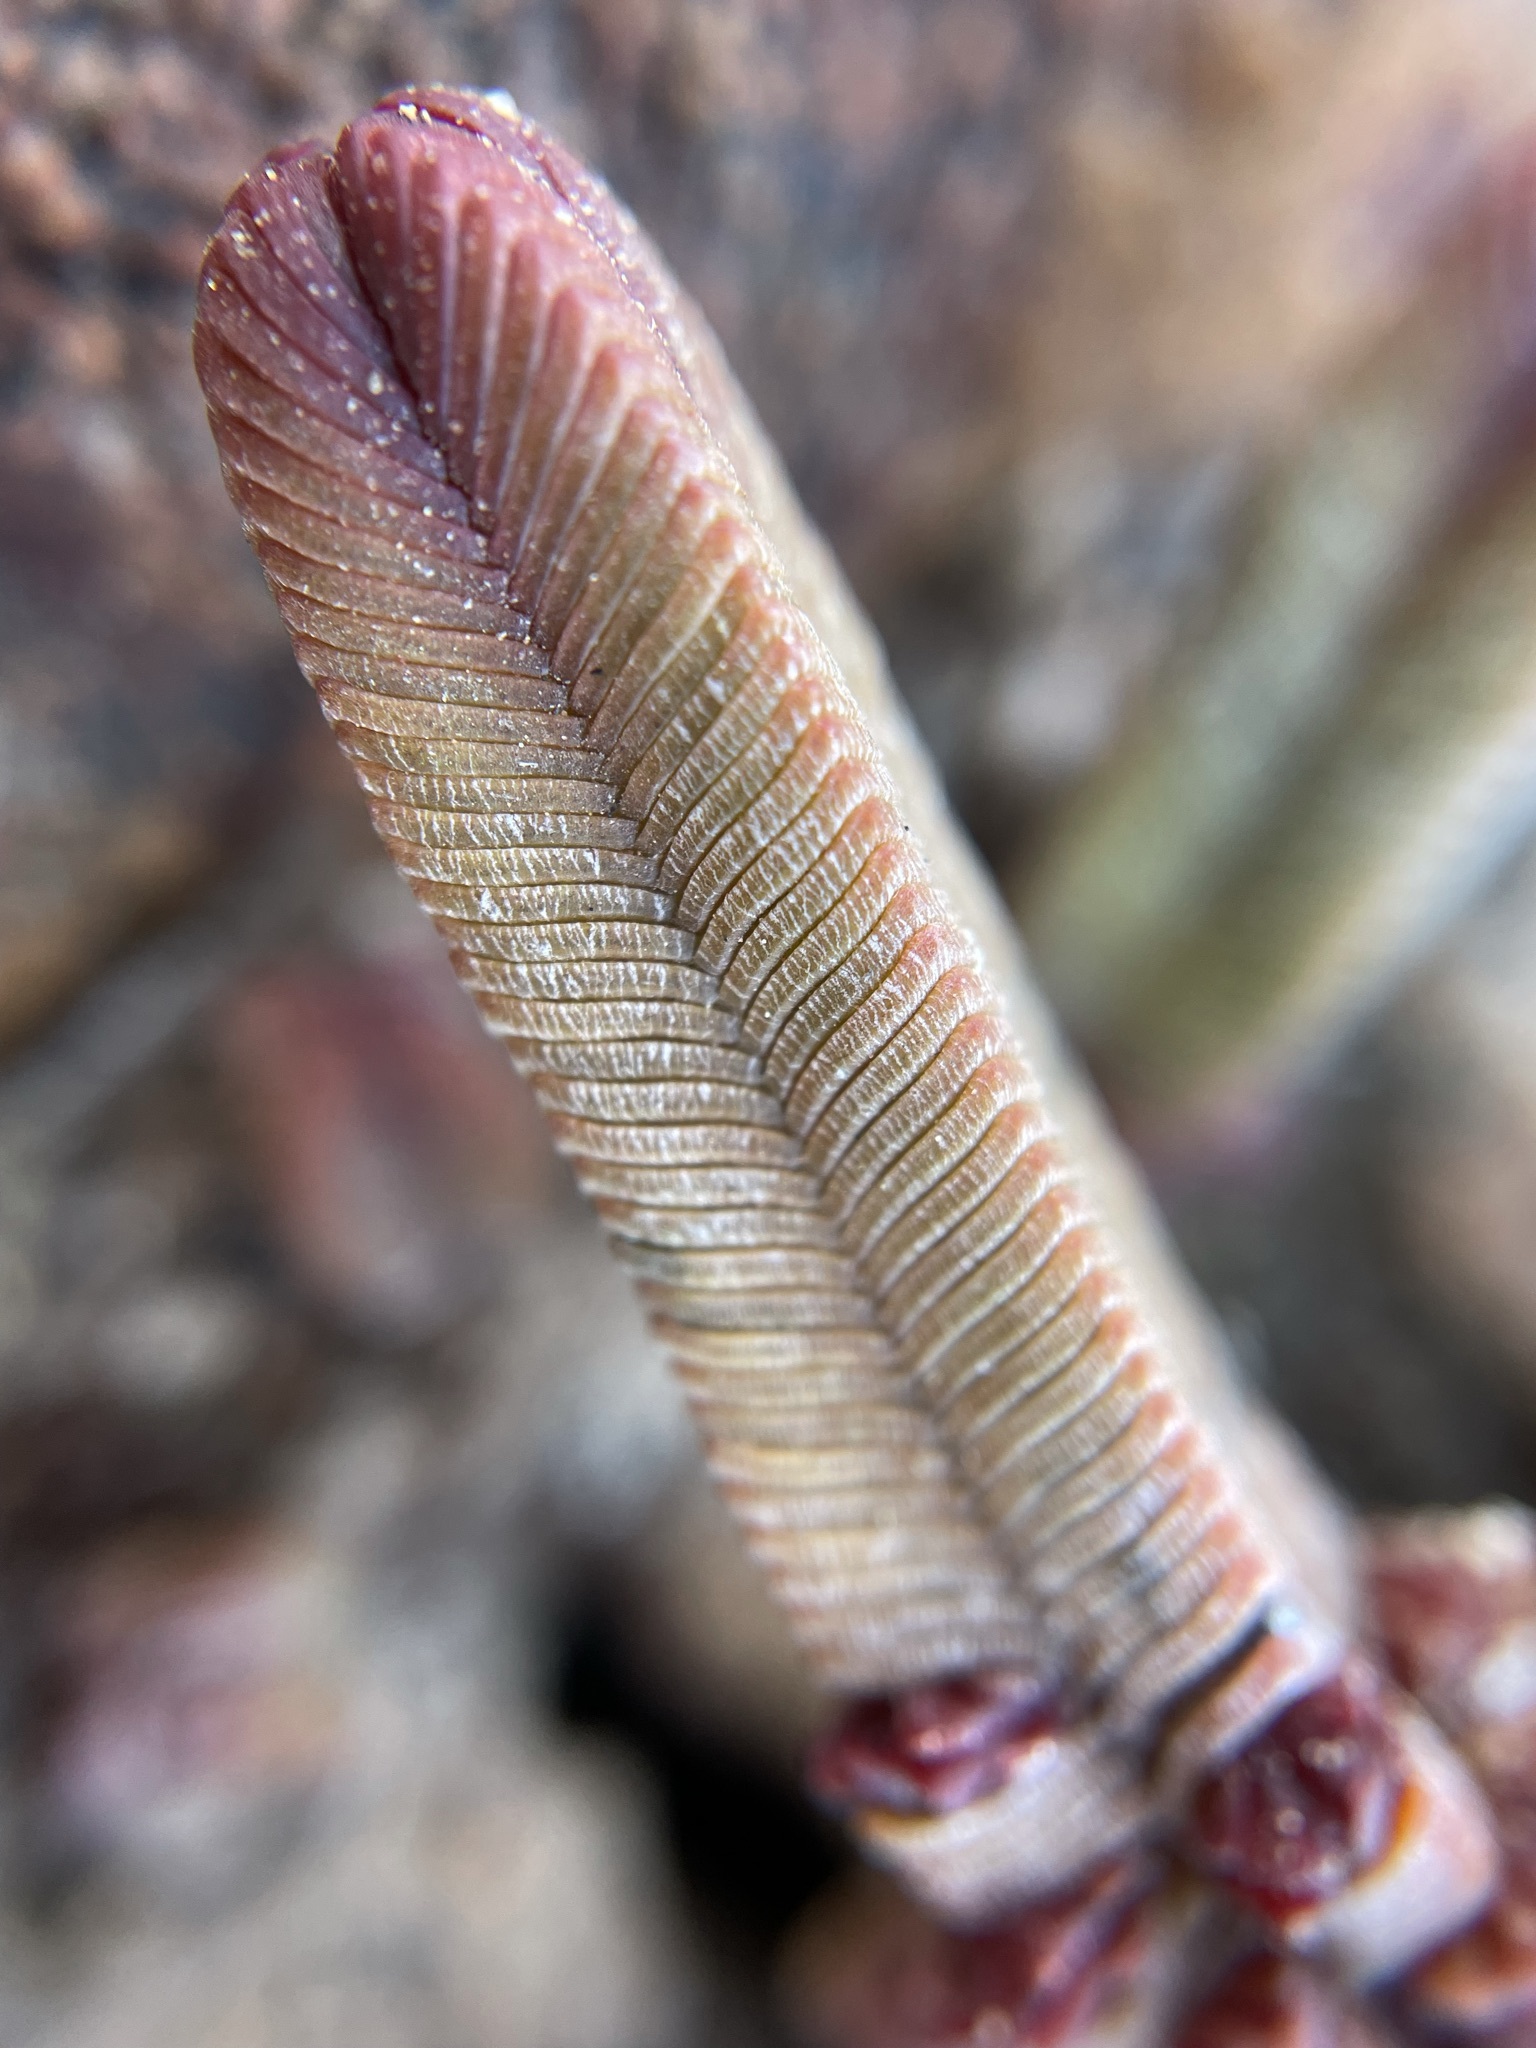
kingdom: Plantae
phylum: Tracheophyta
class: Magnoliopsida
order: Saxifragales
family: Crassulaceae
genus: Crassula
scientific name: Crassula pyramidalis
